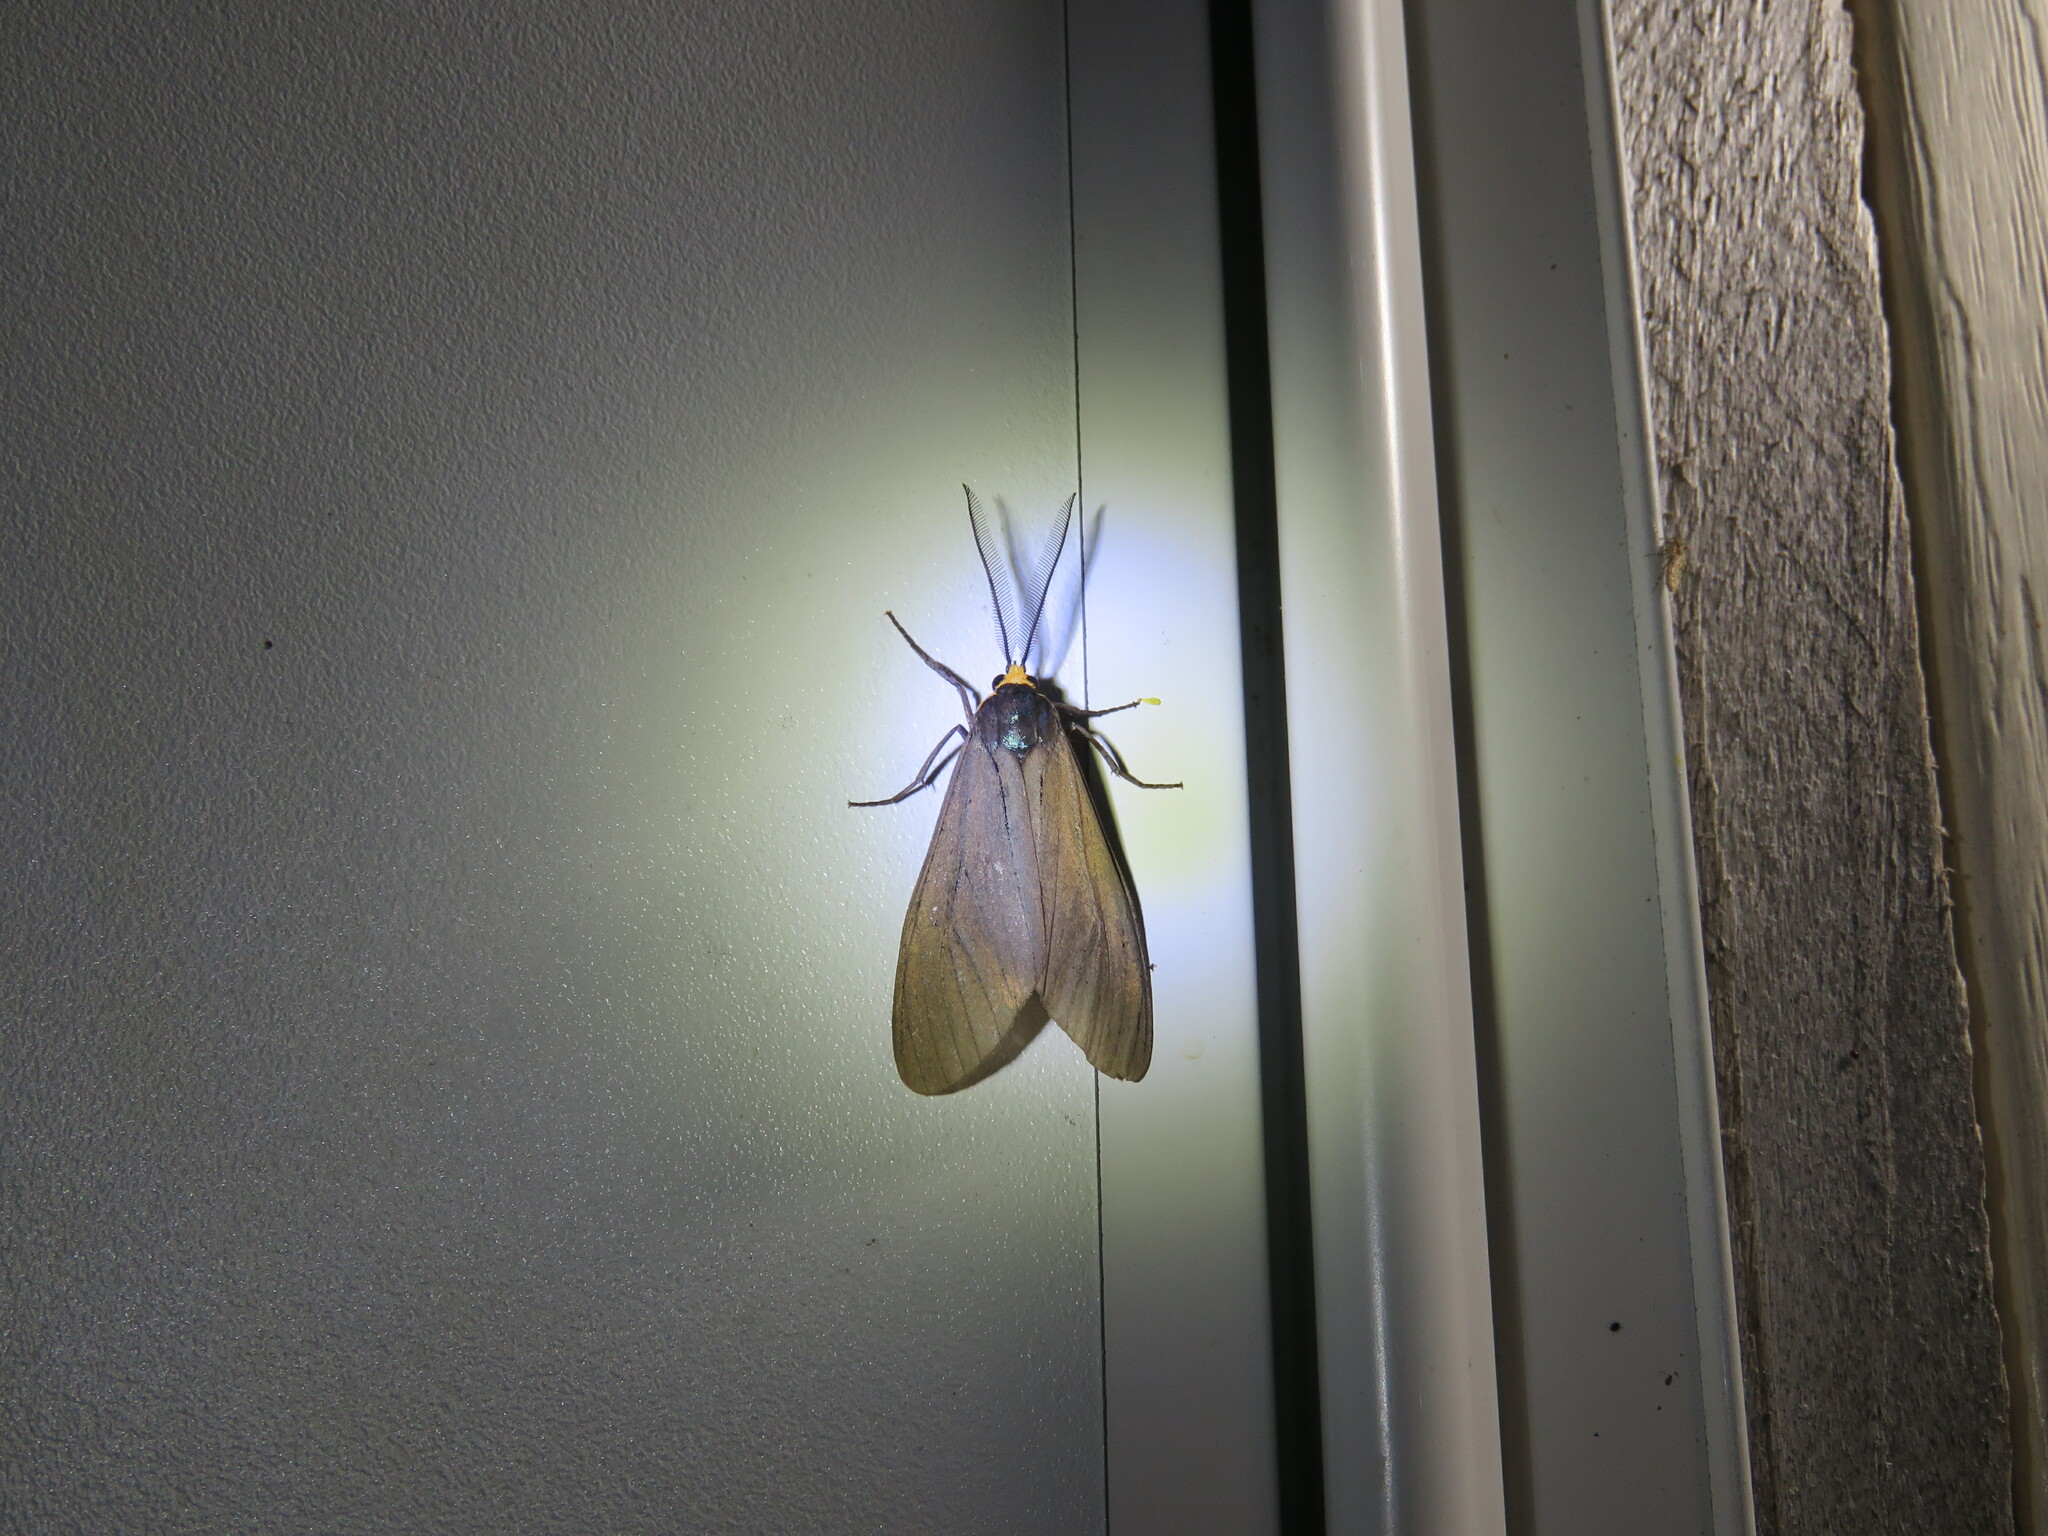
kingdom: Animalia
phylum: Arthropoda
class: Insecta
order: Lepidoptera
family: Erebidae
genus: Ctenucha
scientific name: Ctenucha virginica
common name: Virginia ctenucha moth
